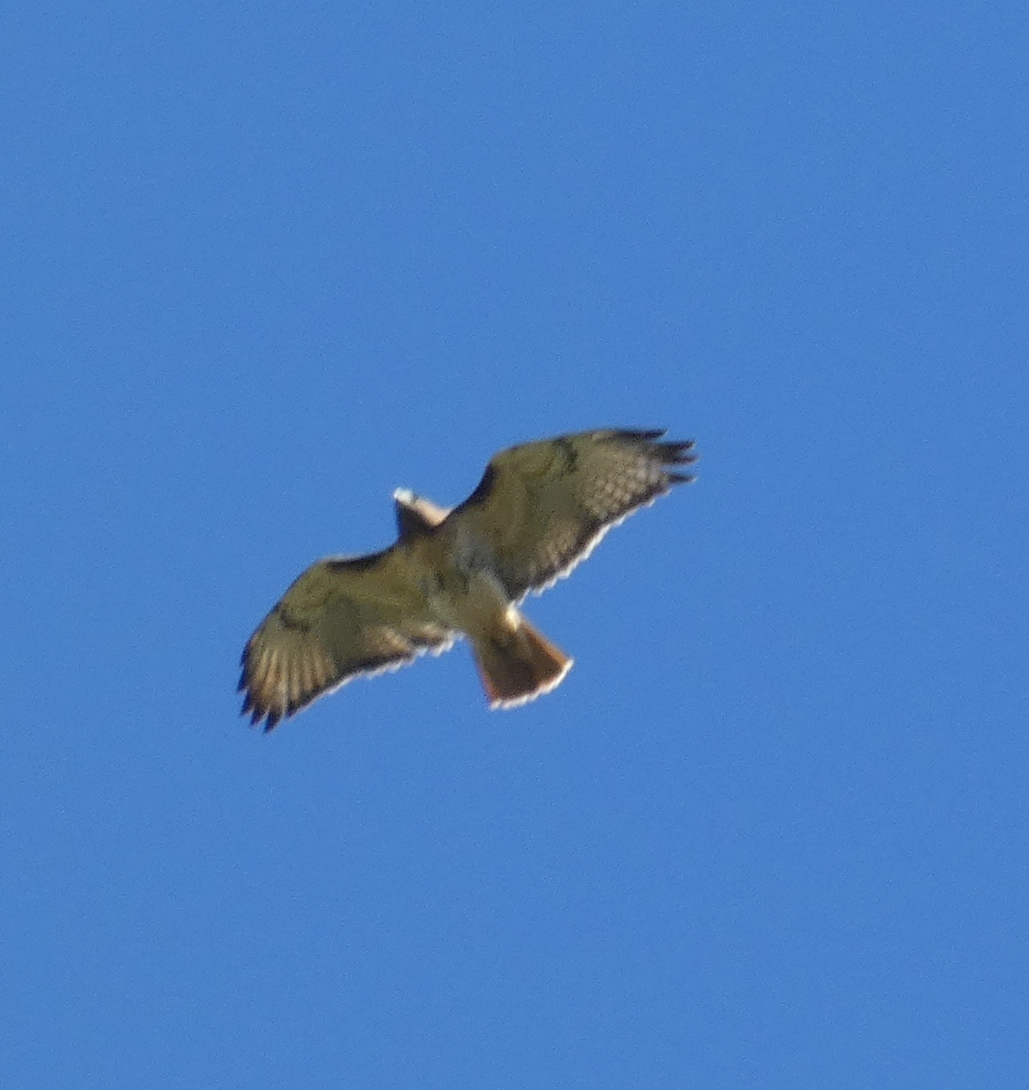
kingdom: Animalia
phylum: Chordata
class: Aves
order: Accipitriformes
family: Accipitridae
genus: Buteo
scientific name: Buteo jamaicensis
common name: Red-tailed hawk
